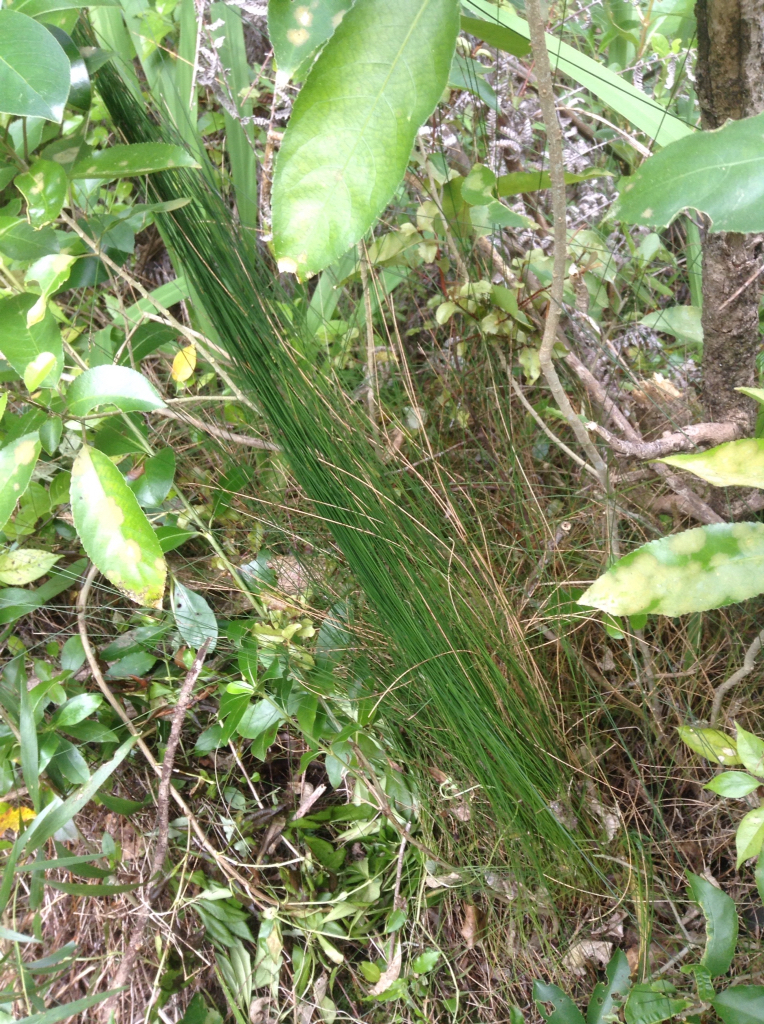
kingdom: Plantae
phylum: Tracheophyta
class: Liliopsida
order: Poales
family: Cyperaceae
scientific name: Cyperaceae
